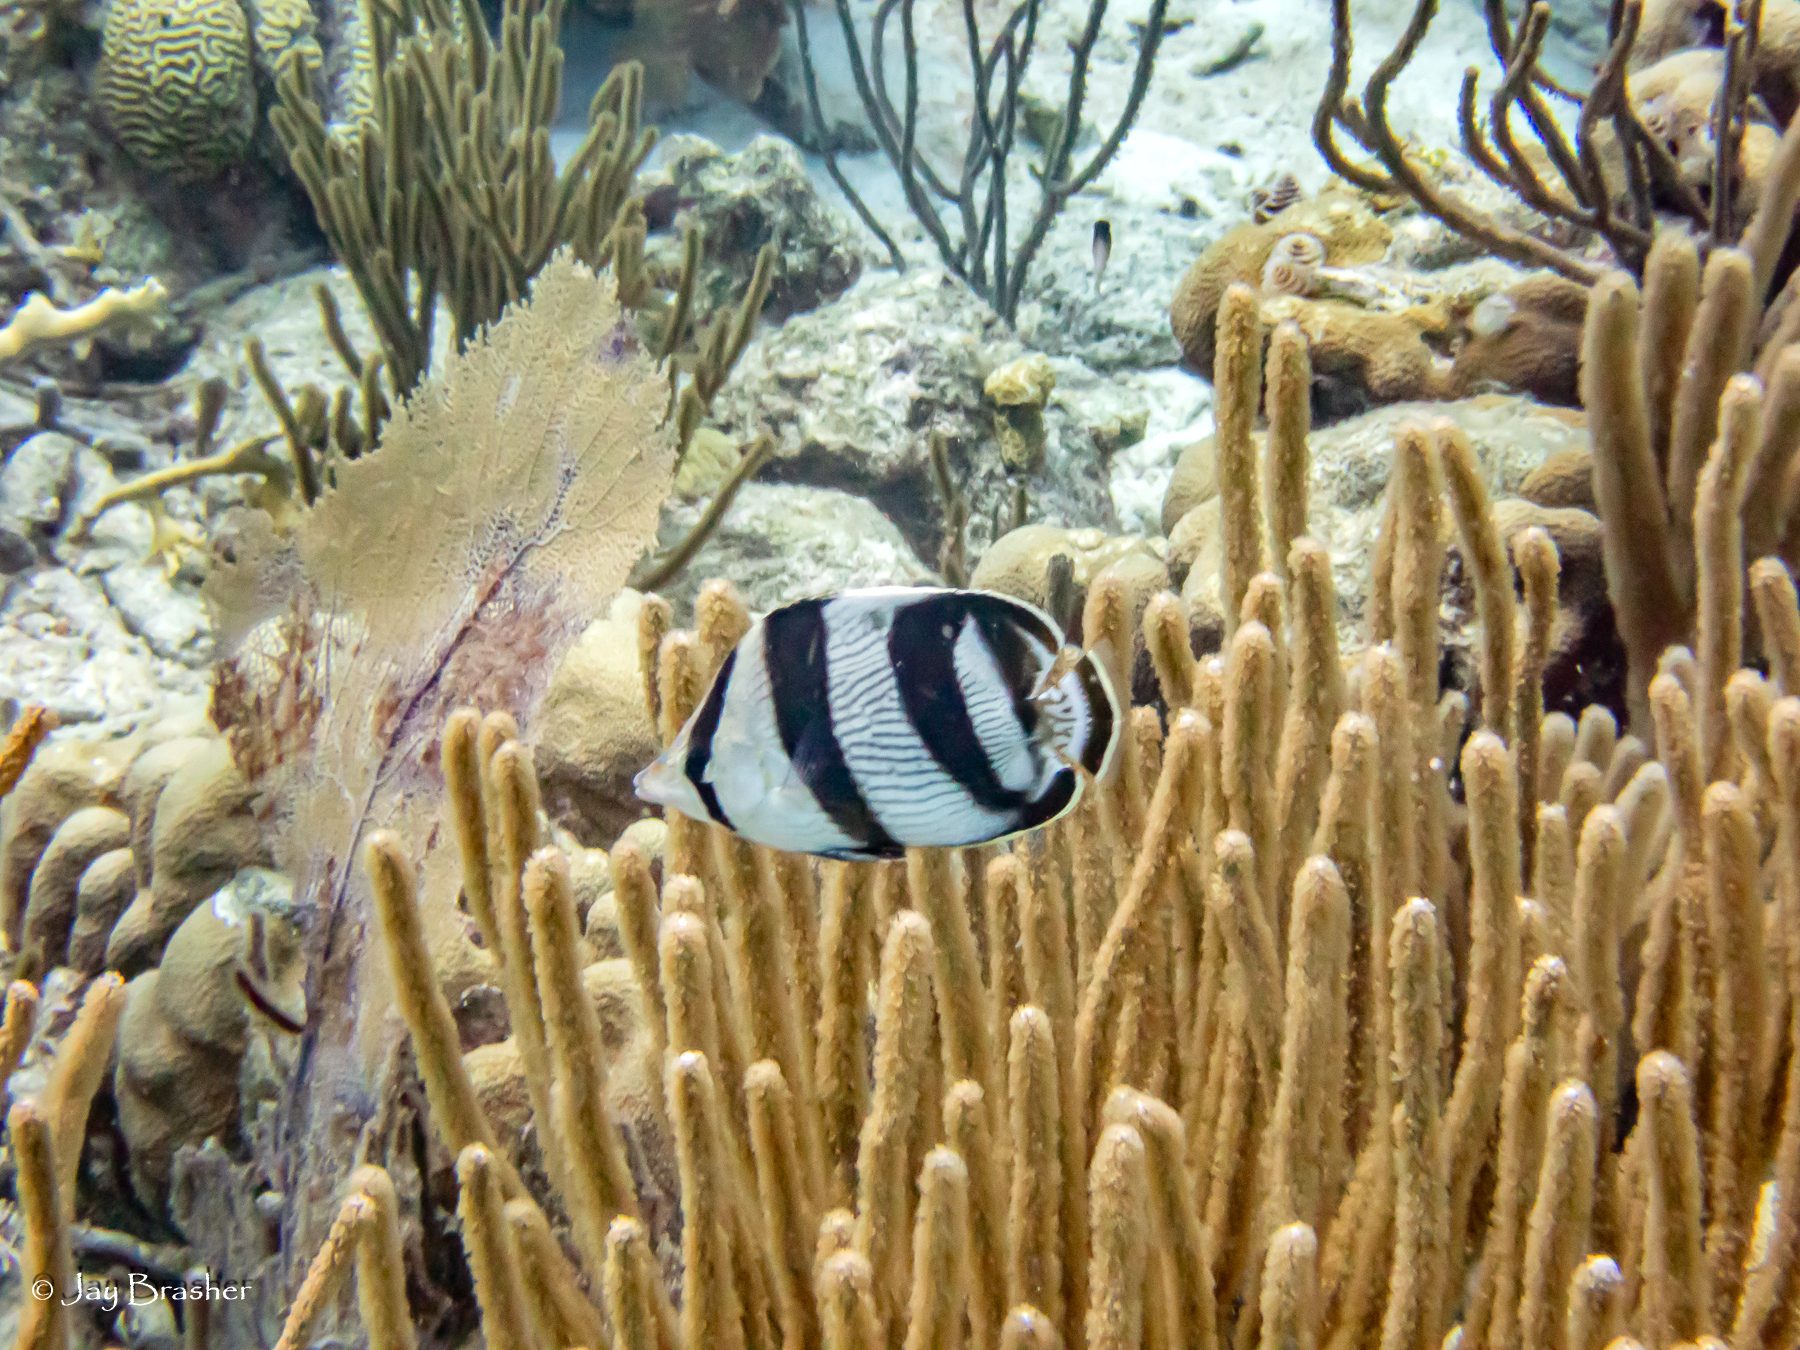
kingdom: Animalia
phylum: Chordata
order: Perciformes
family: Chaetodontidae
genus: Chaetodon
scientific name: Chaetodon striatus
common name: Banded butterflyfish
